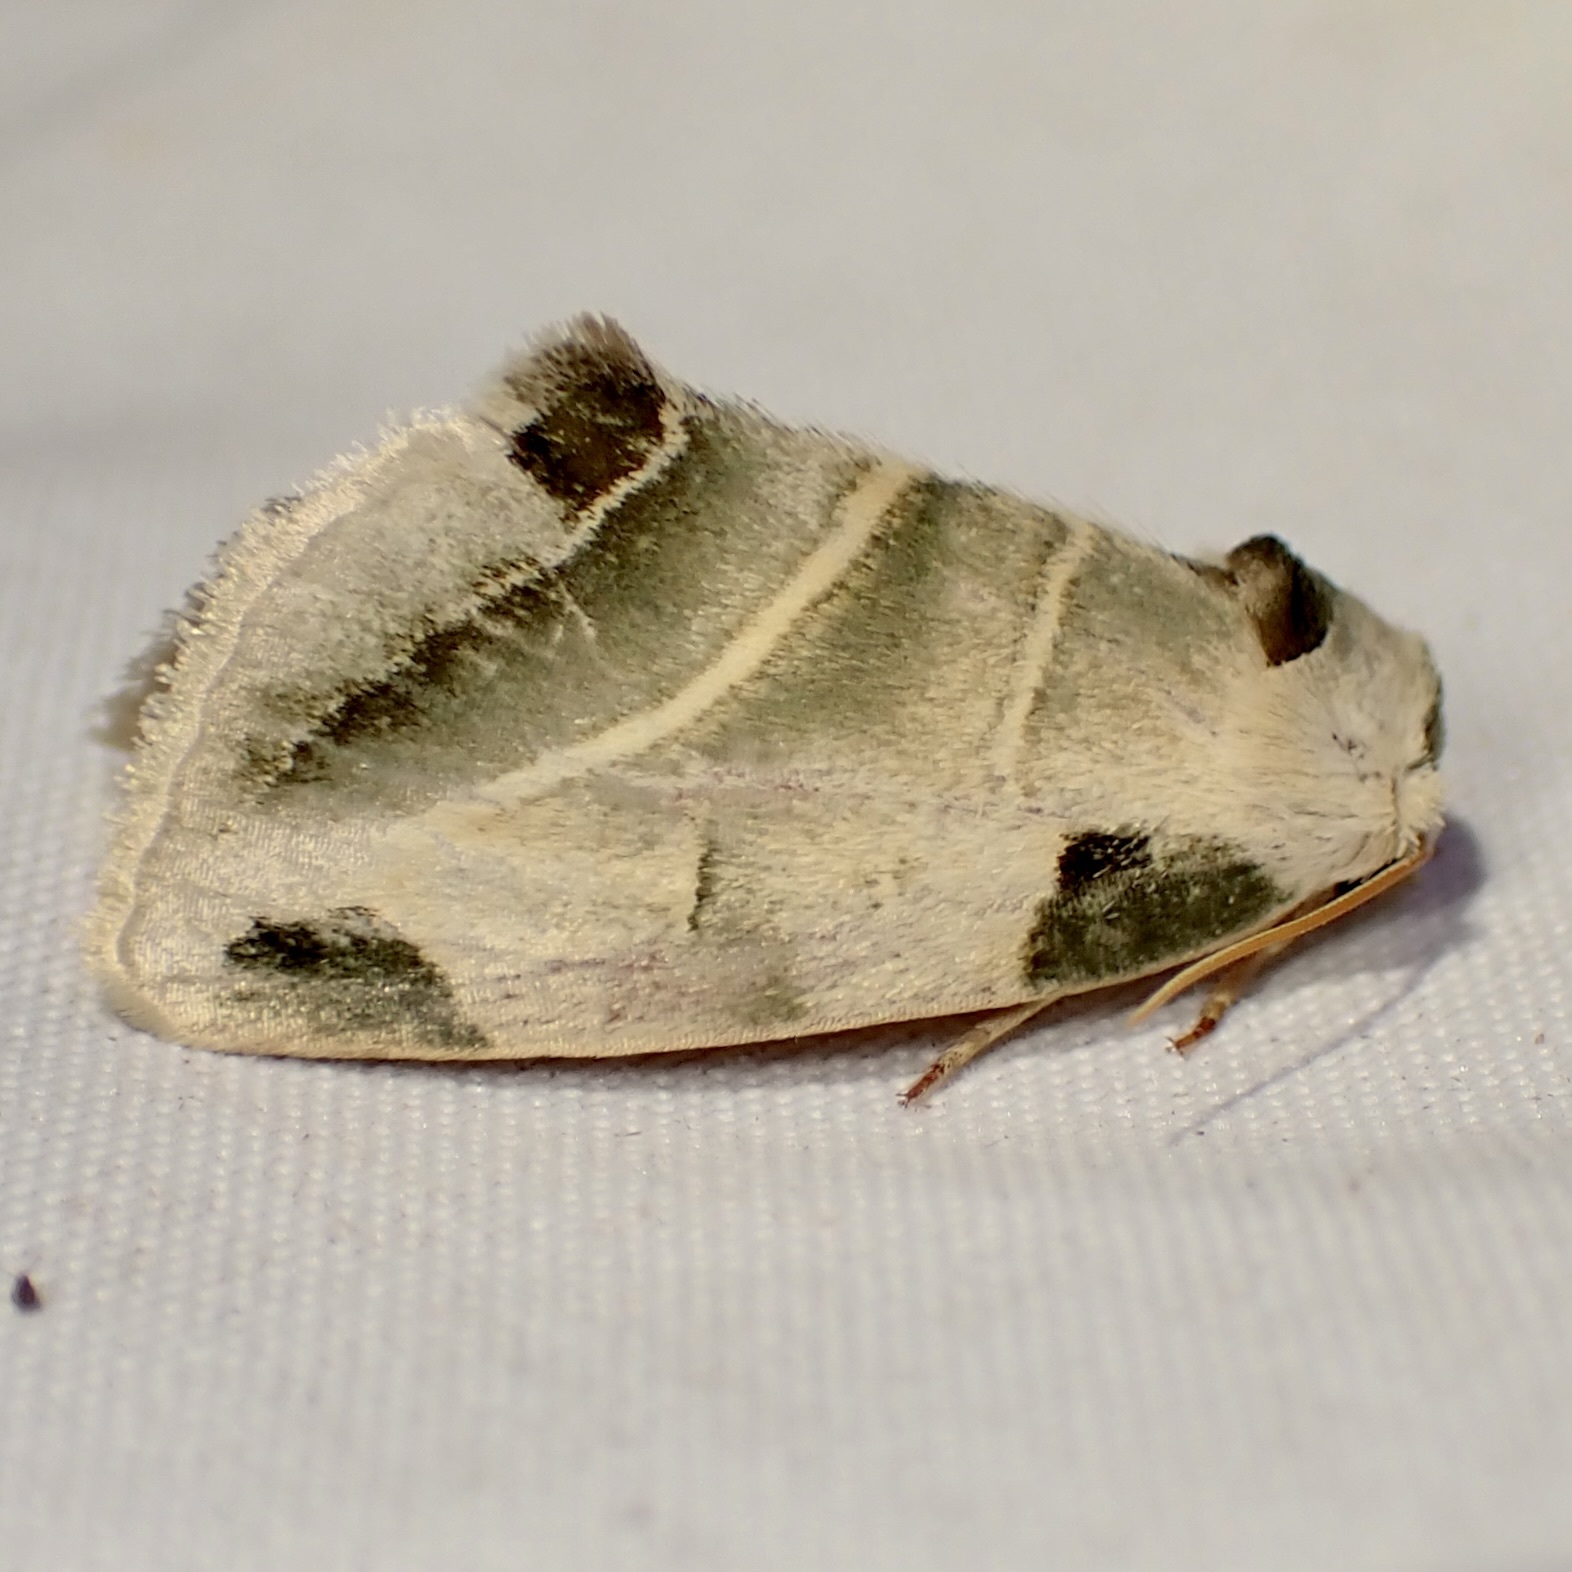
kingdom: Animalia
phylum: Arthropoda
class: Insecta
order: Lepidoptera
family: Noctuidae
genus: Heminocloa
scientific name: Heminocloa mirabilis
